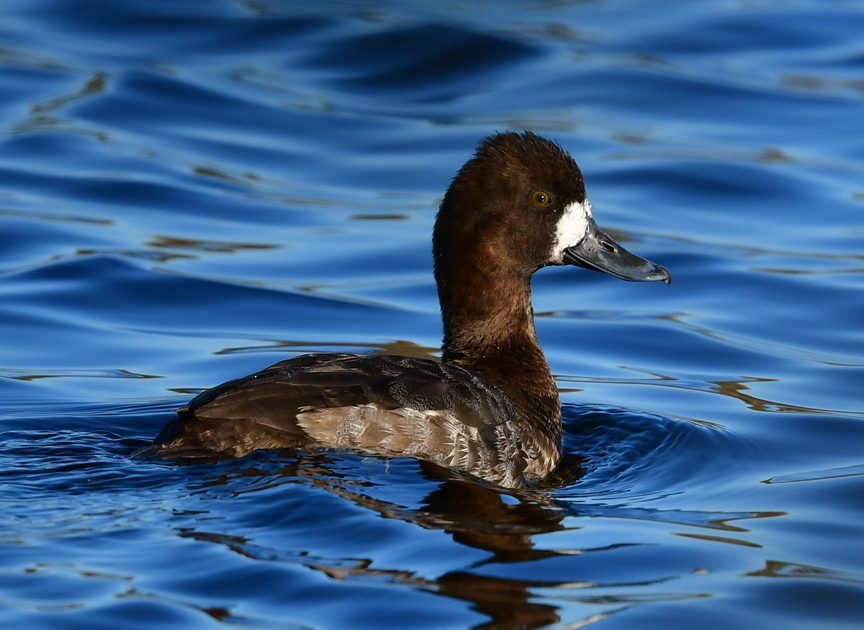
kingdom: Animalia
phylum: Chordata
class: Aves
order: Anseriformes
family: Anatidae
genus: Aythya
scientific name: Aythya affinis
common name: Lesser scaup
